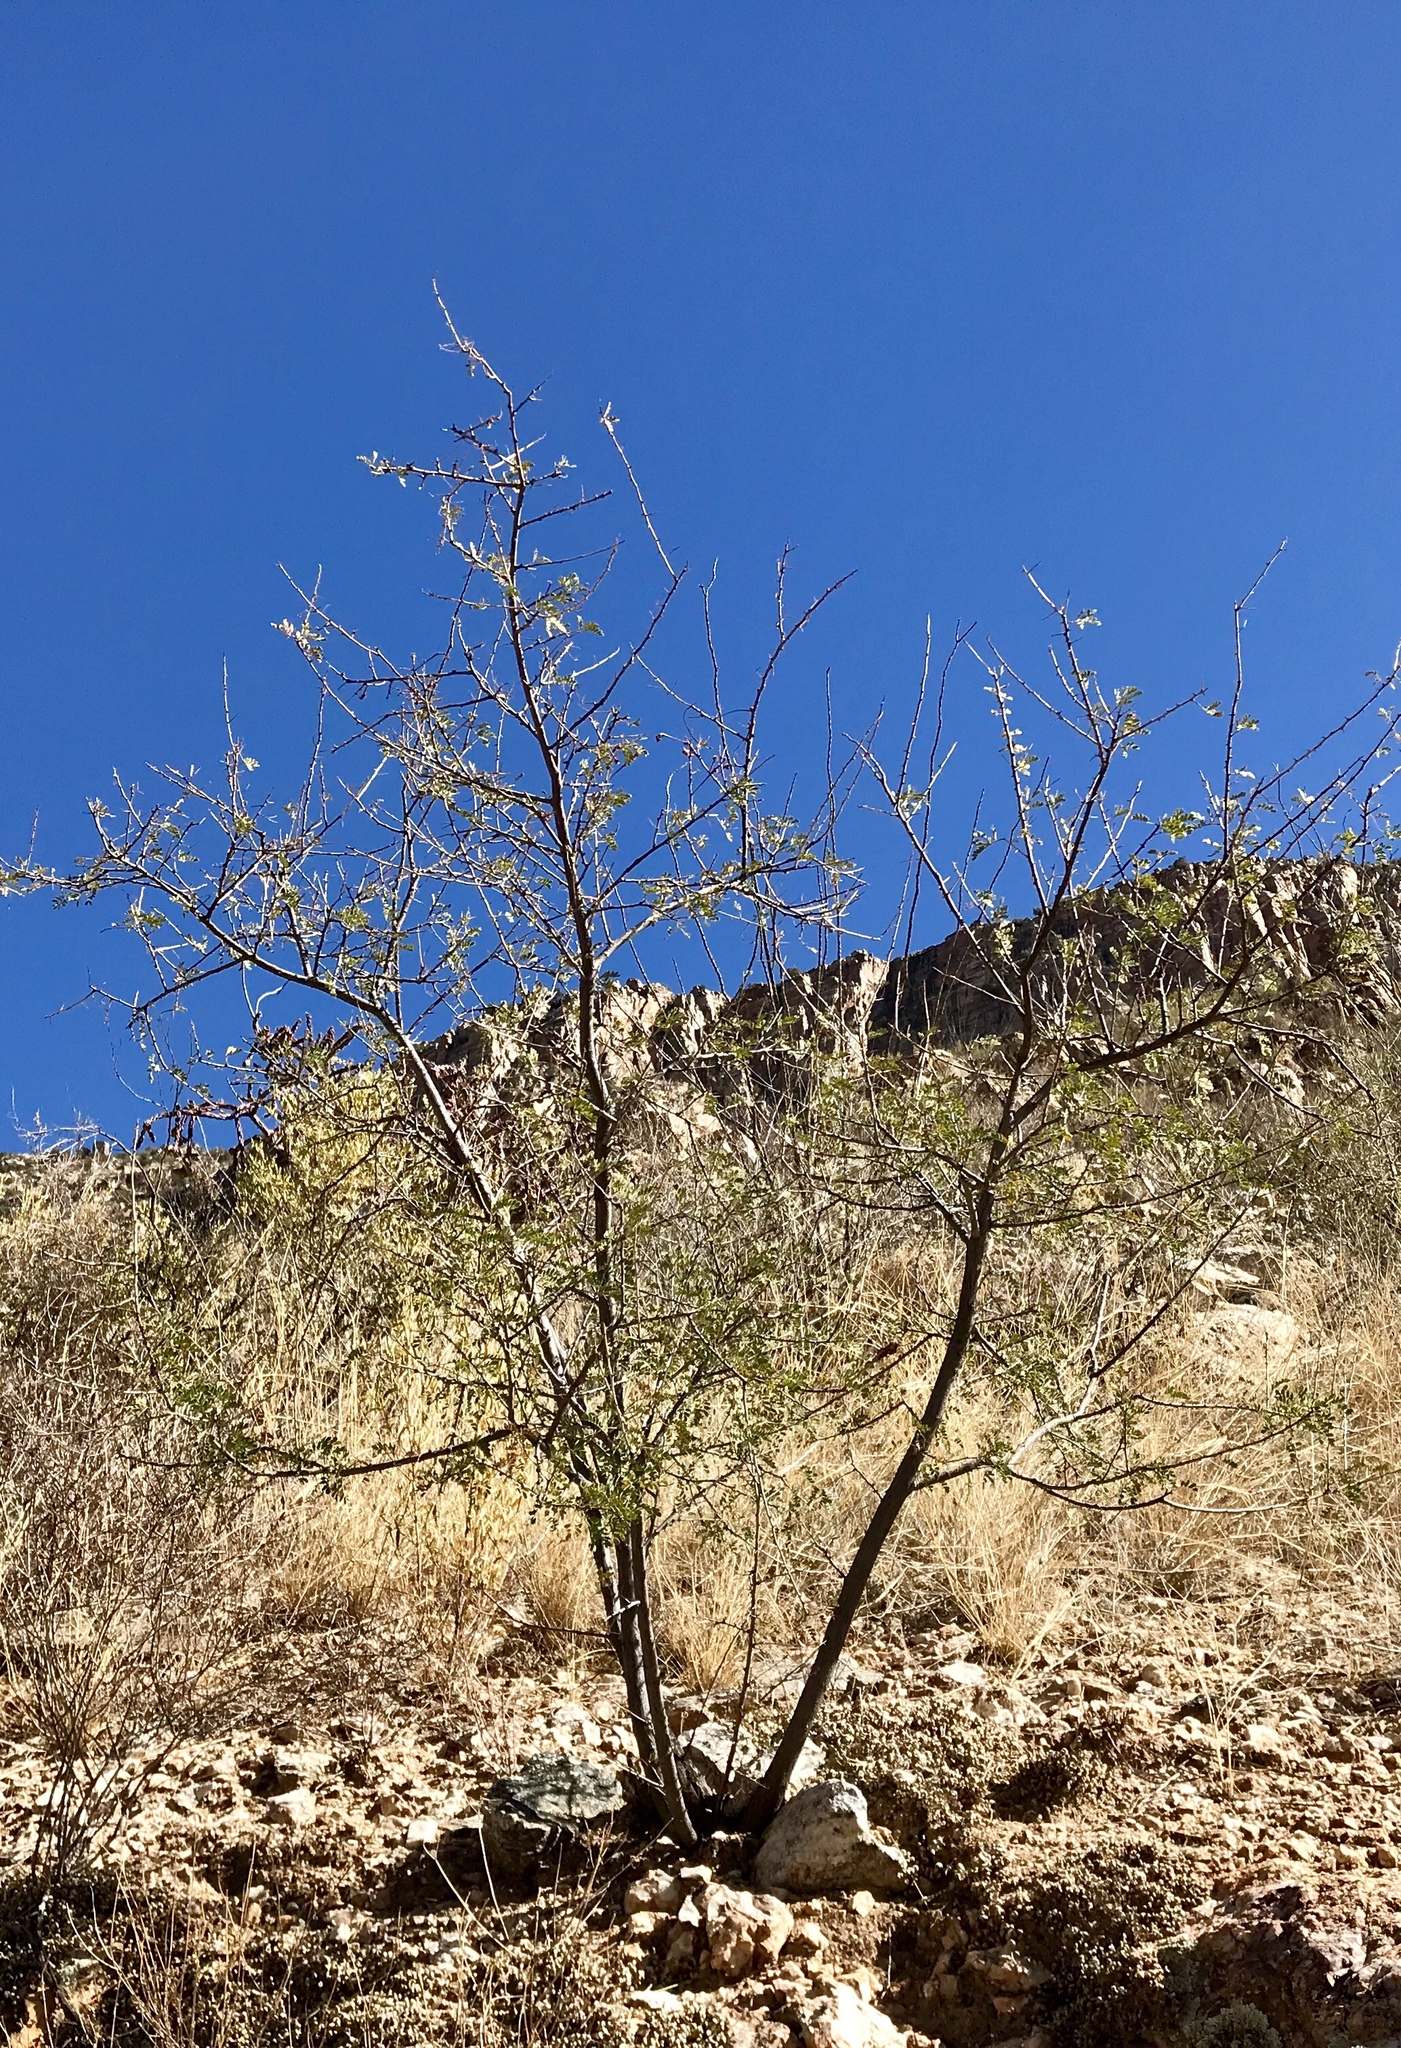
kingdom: Plantae
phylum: Tracheophyta
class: Magnoliopsida
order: Fabales
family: Fabaceae
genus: Senegalia
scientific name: Senegalia greggii
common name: Texas-mimosa
